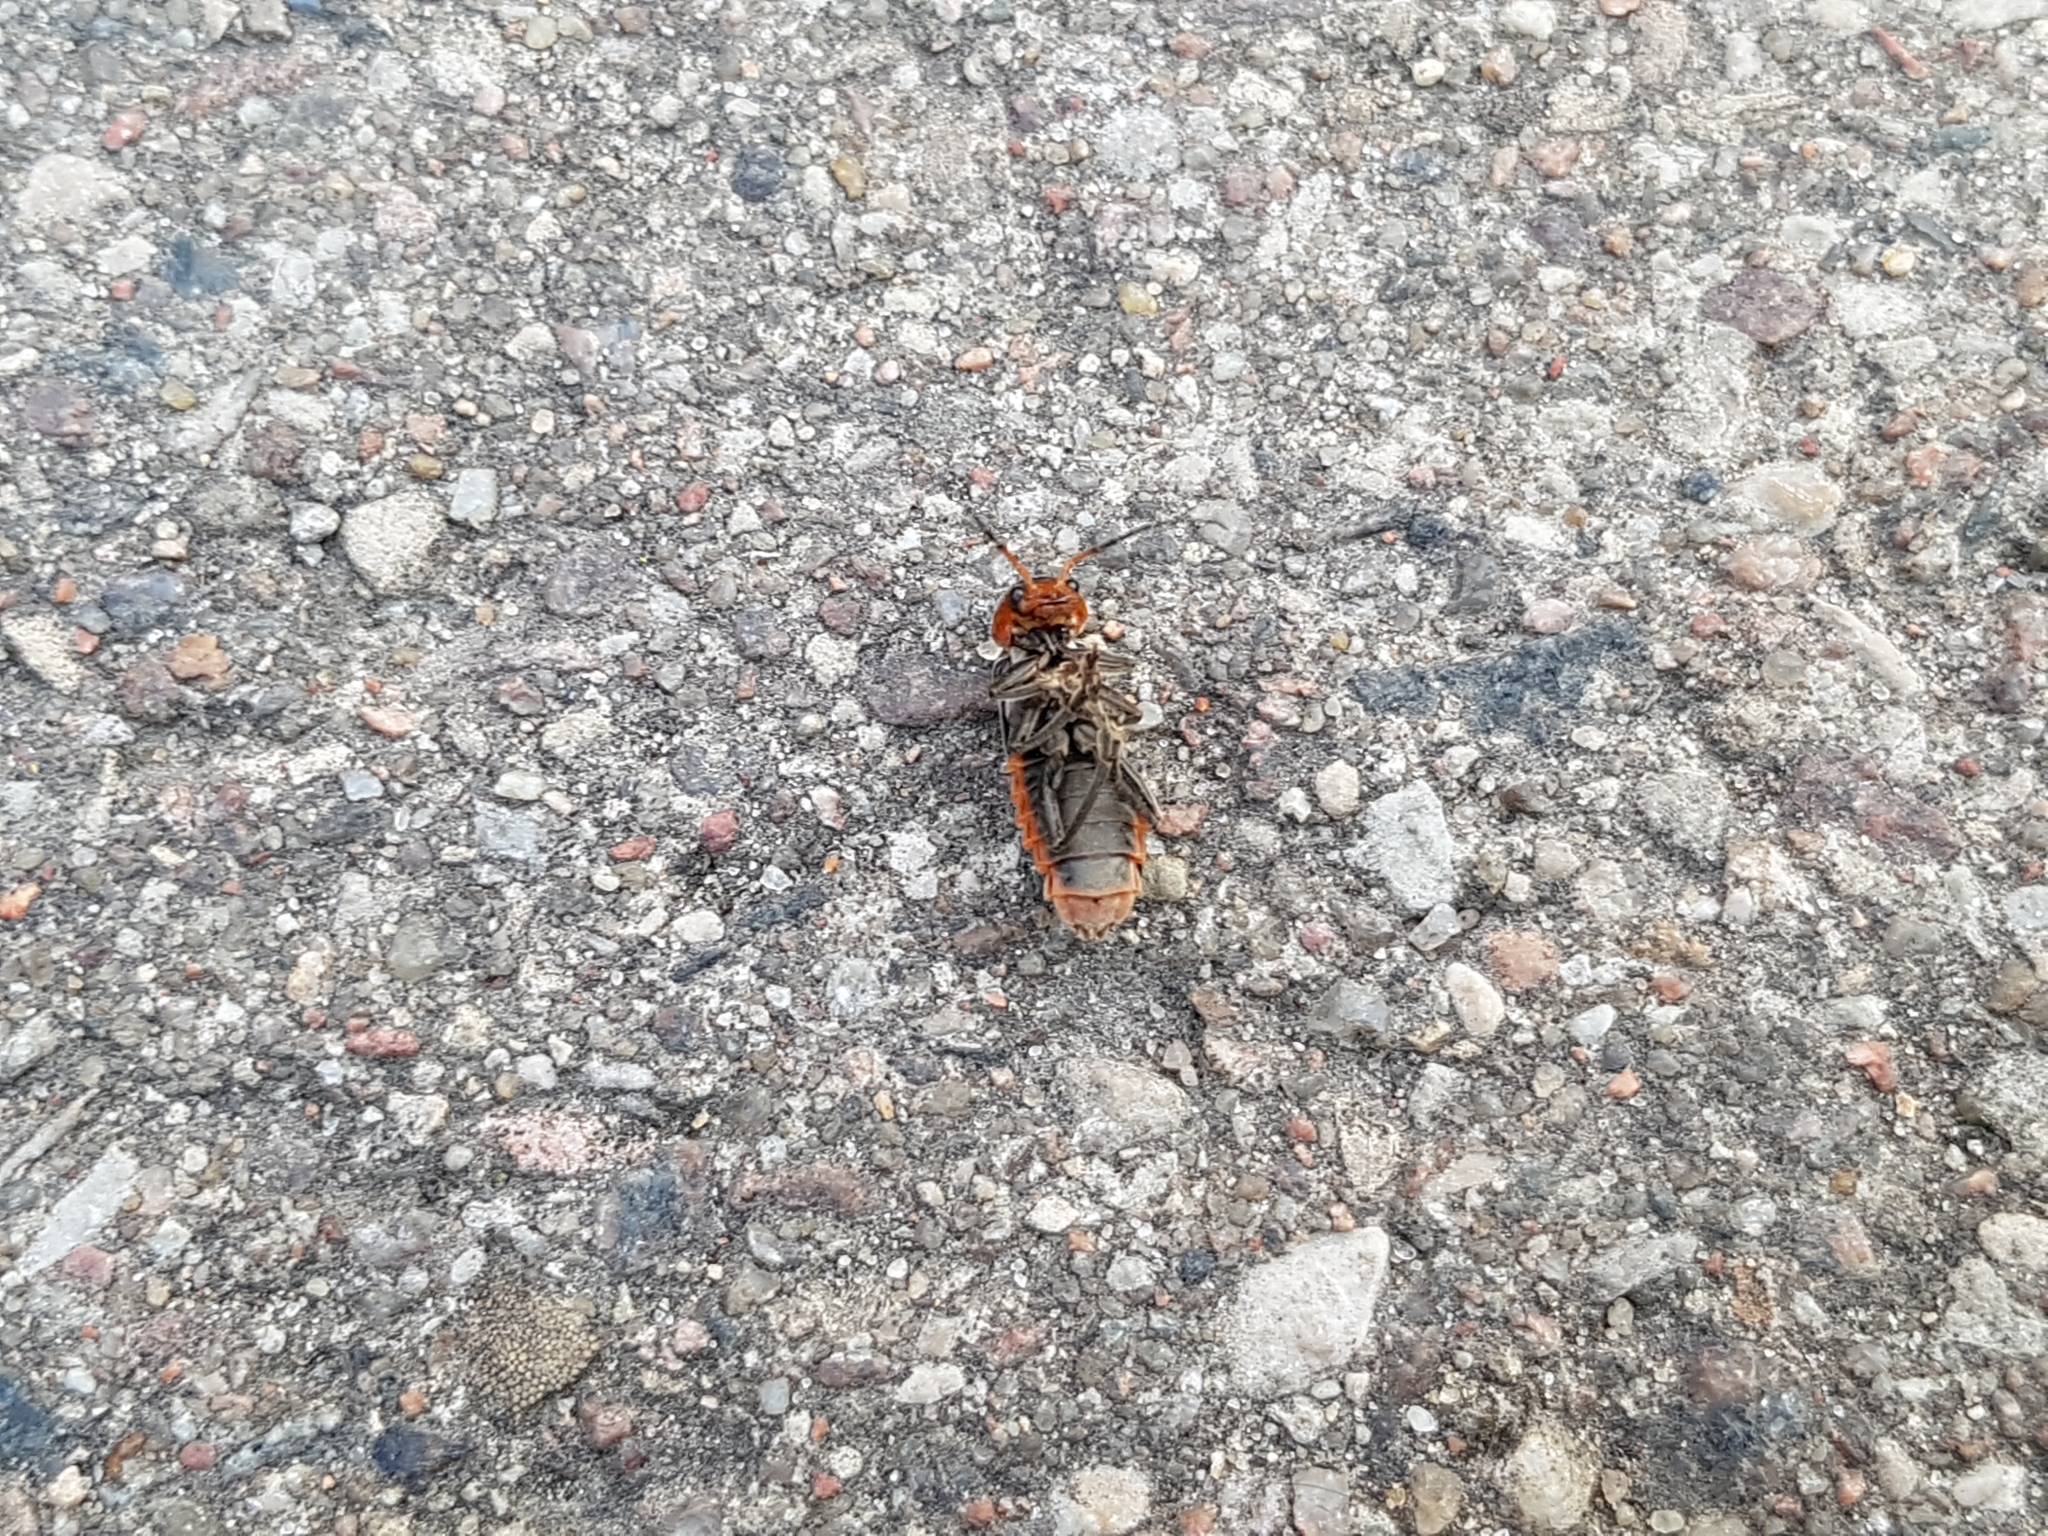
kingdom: Animalia
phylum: Arthropoda
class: Insecta
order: Coleoptera
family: Cantharidae
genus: Cantharis
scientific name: Cantharis fusca
